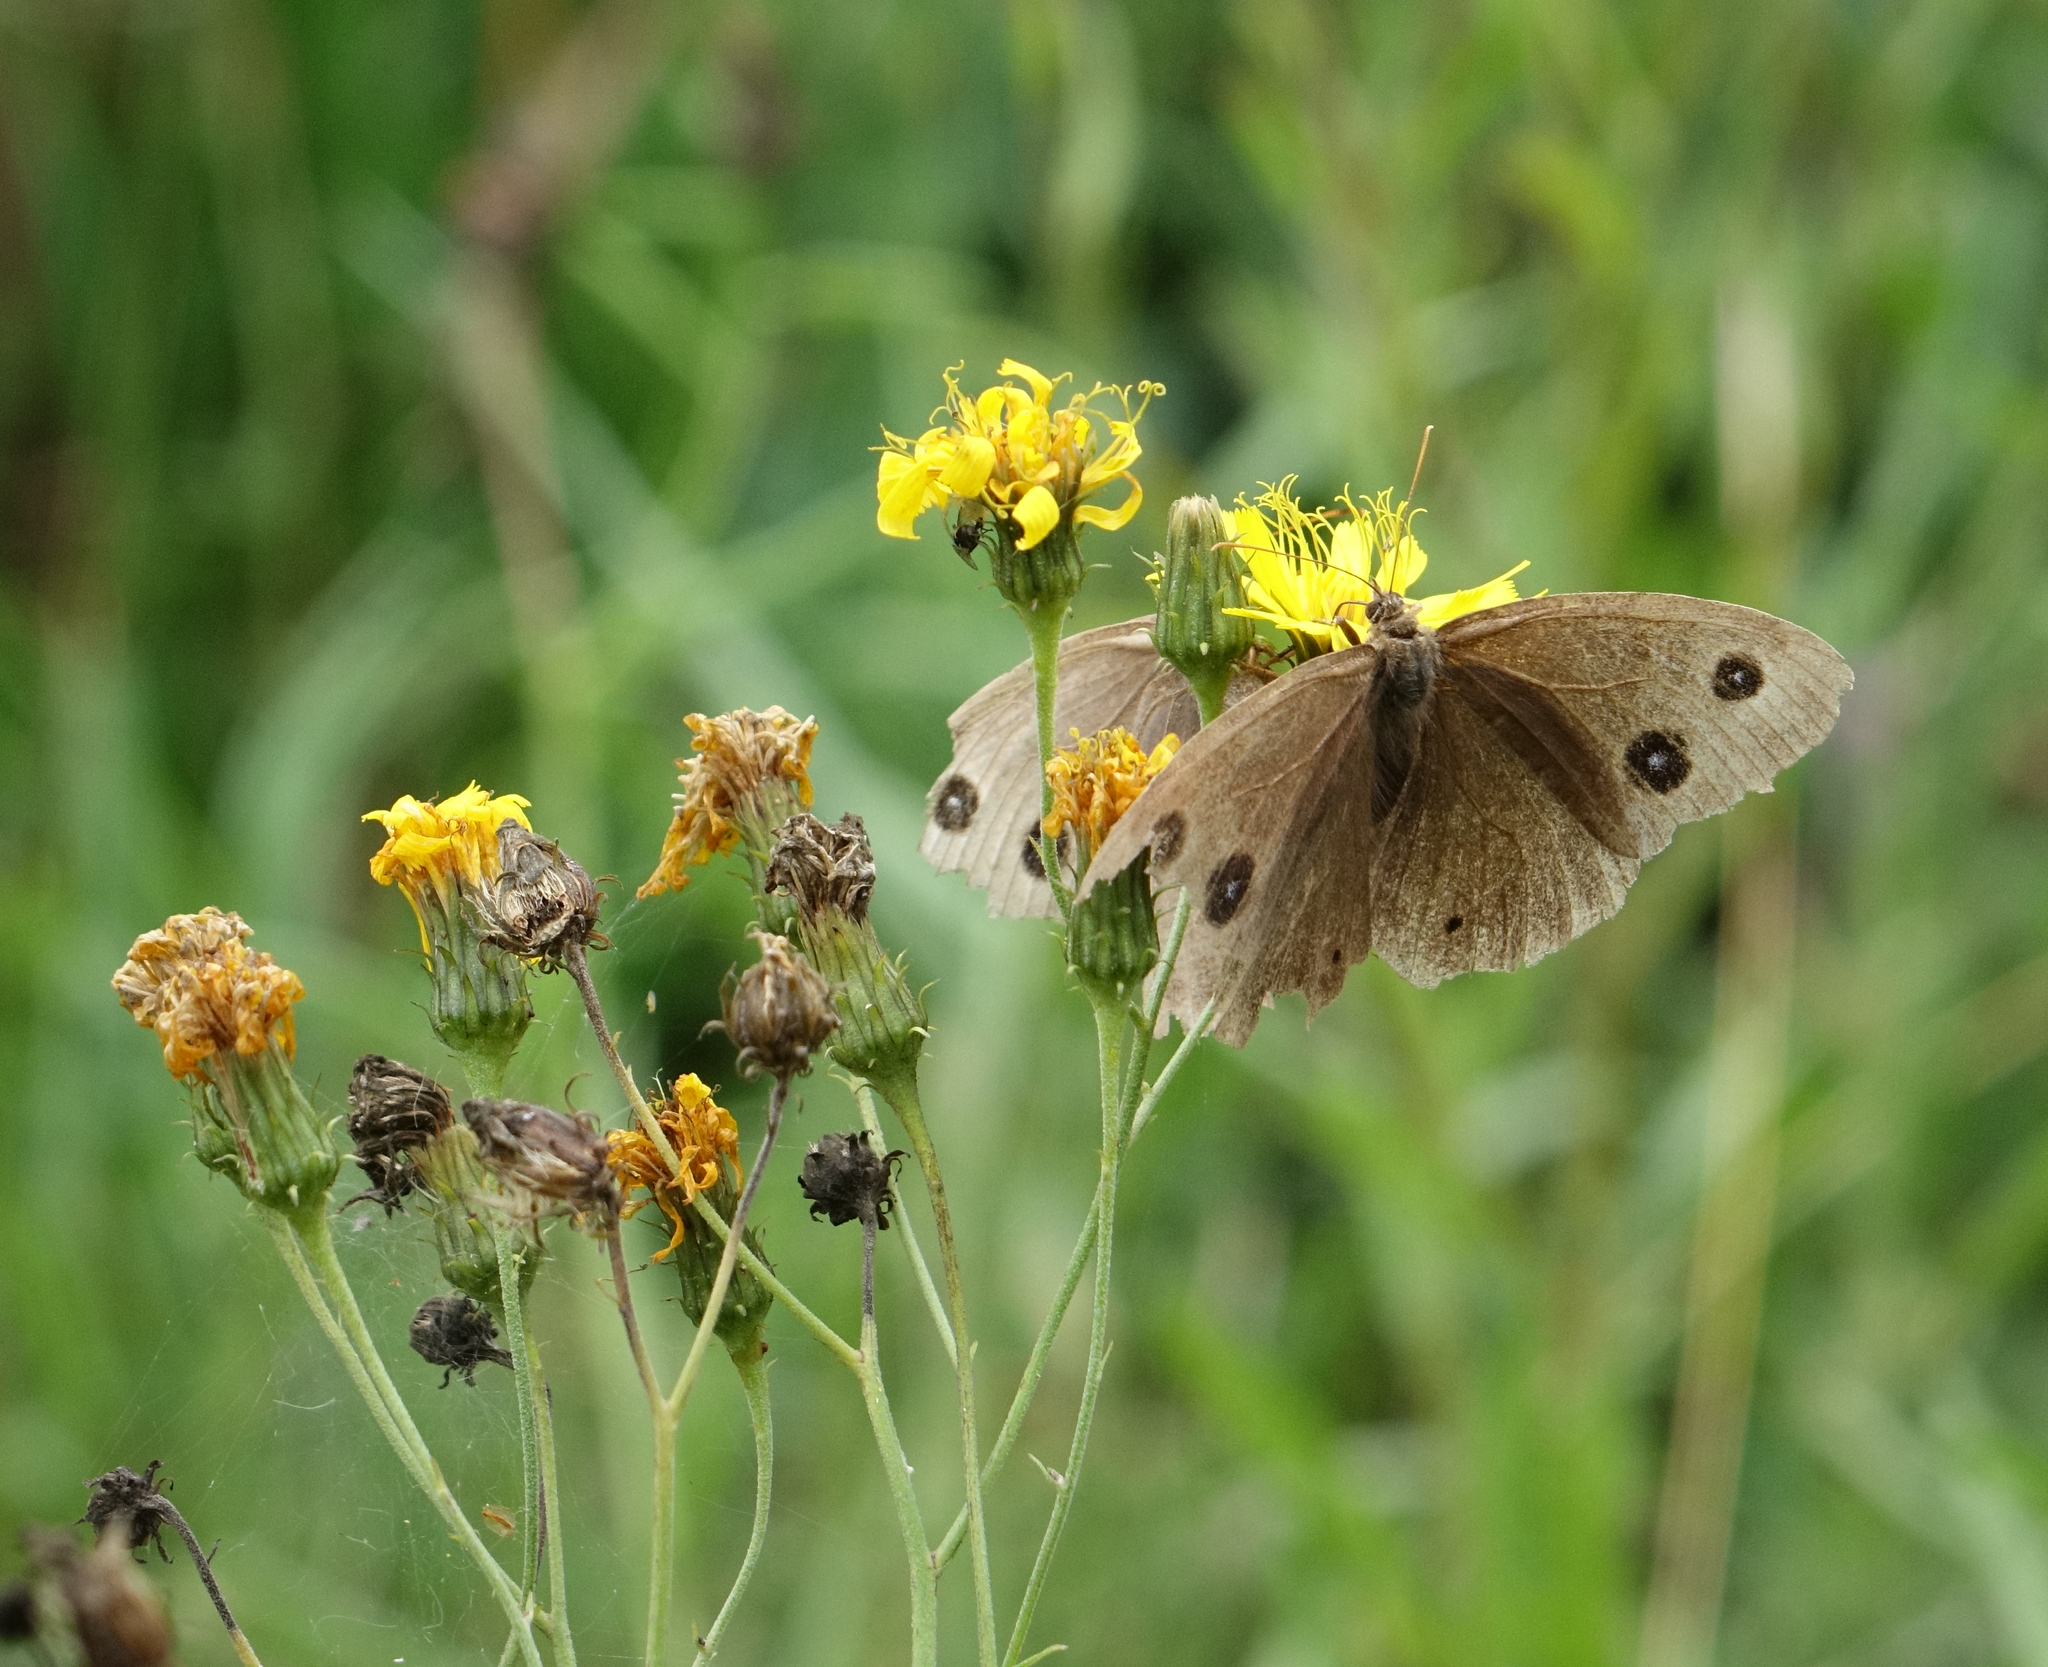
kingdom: Animalia
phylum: Arthropoda
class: Insecta
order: Lepidoptera
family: Nymphalidae
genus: Minois
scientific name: Minois dryas
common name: Dryad
